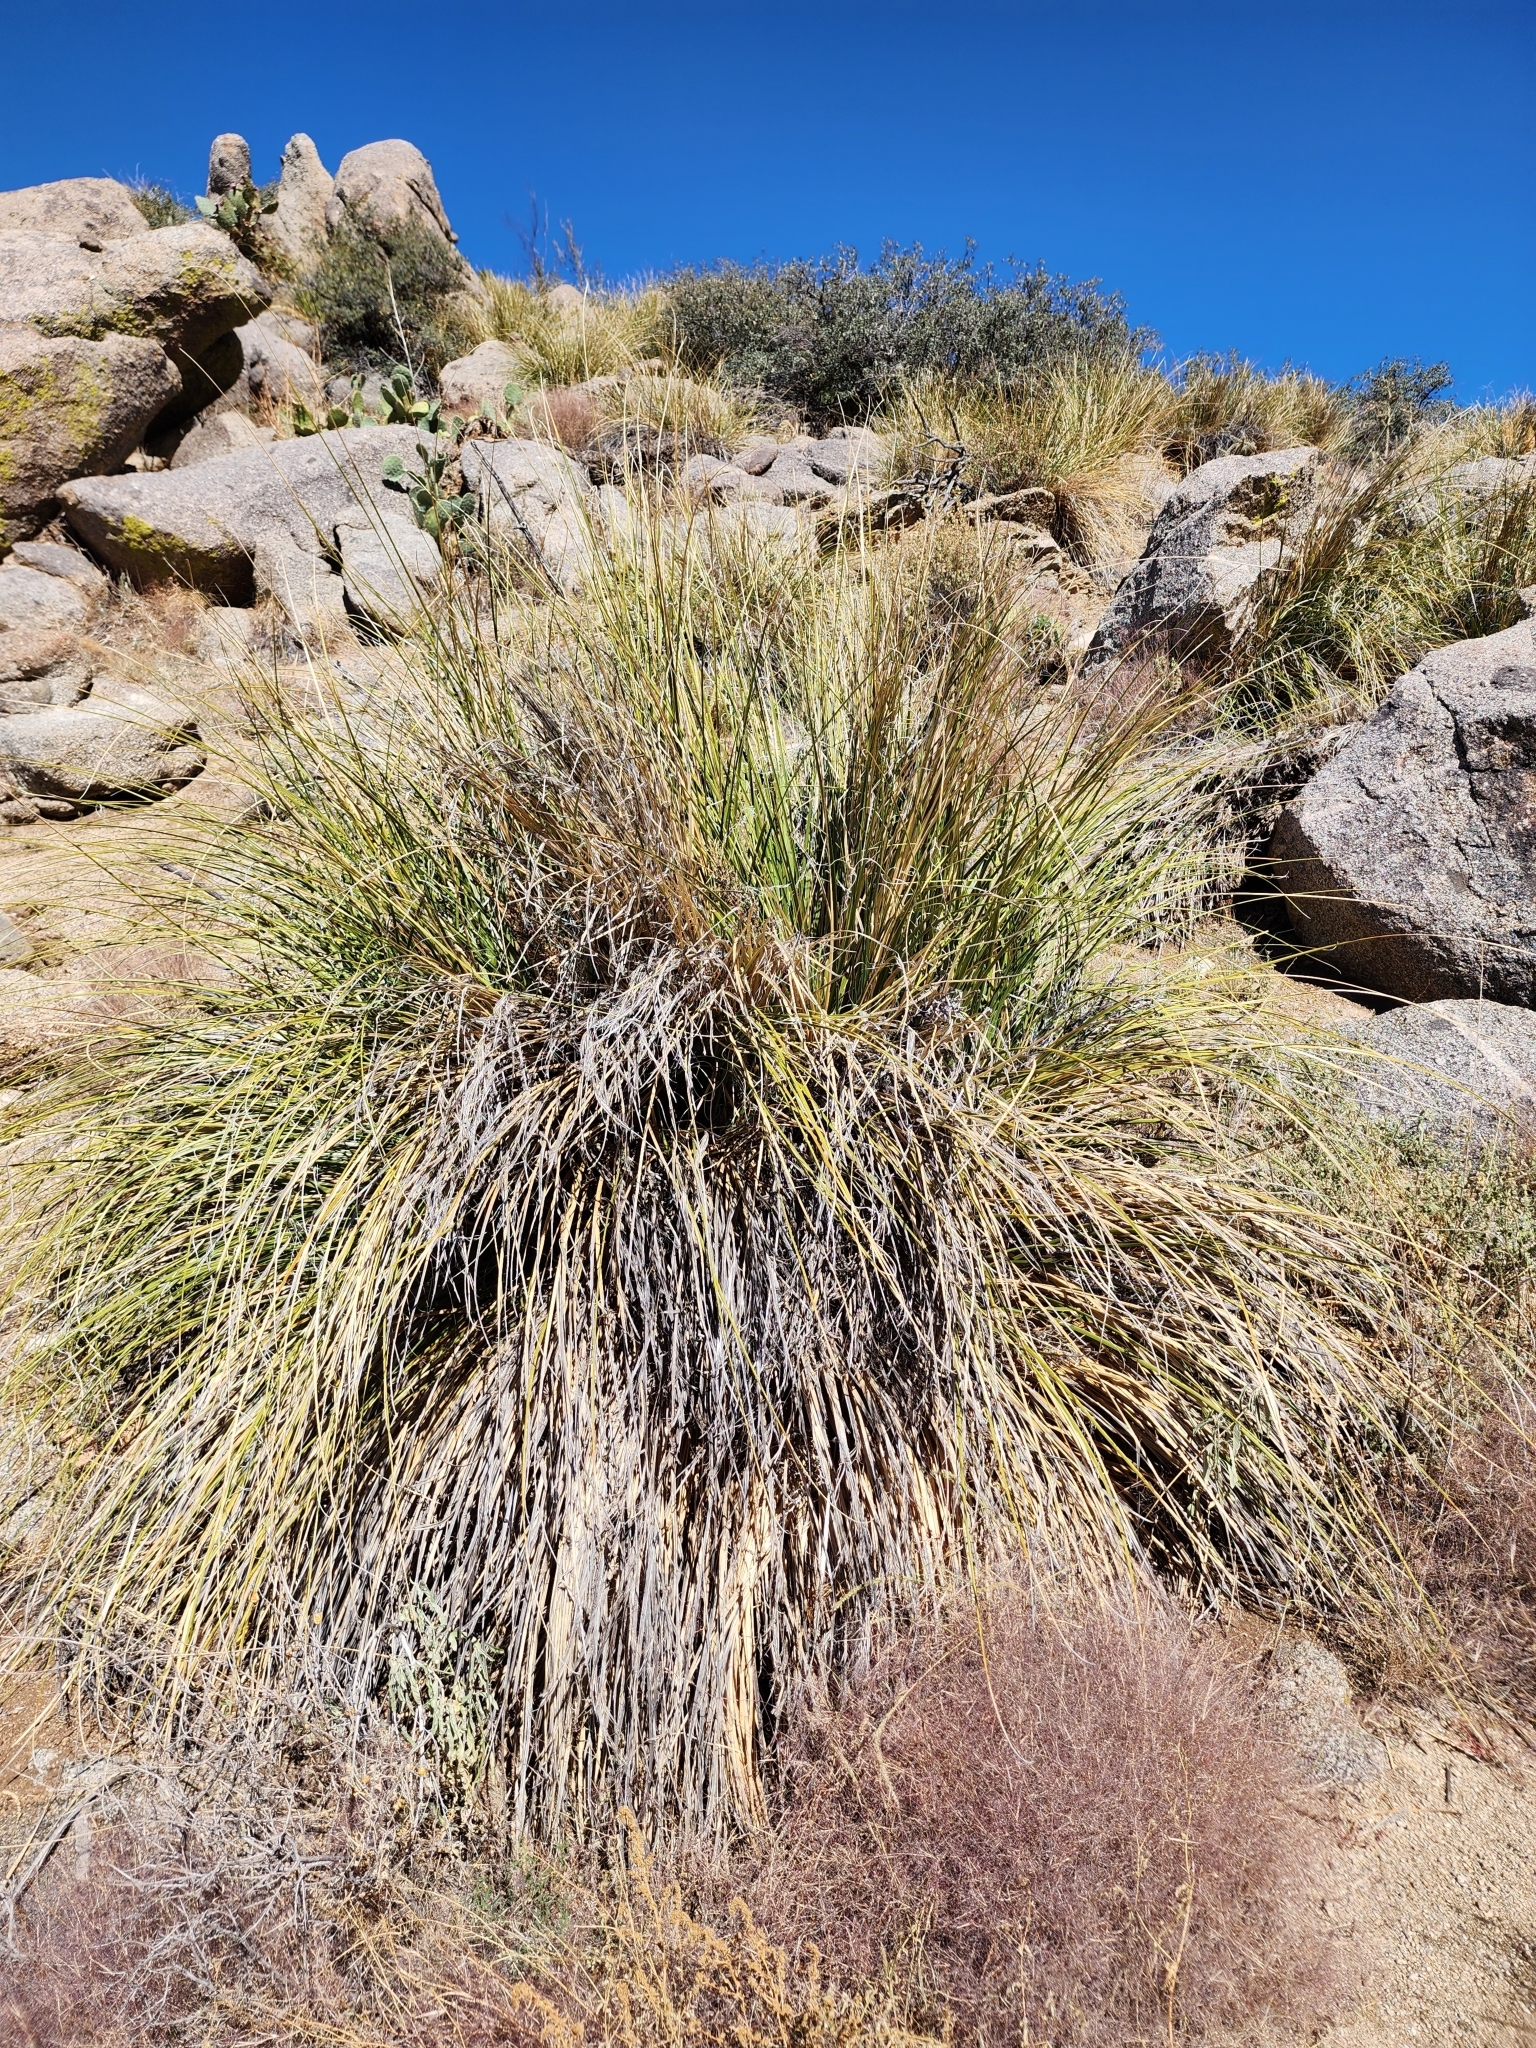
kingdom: Plantae
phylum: Tracheophyta
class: Liliopsida
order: Asparagales
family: Asparagaceae
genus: Nolina
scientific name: Nolina greenei
